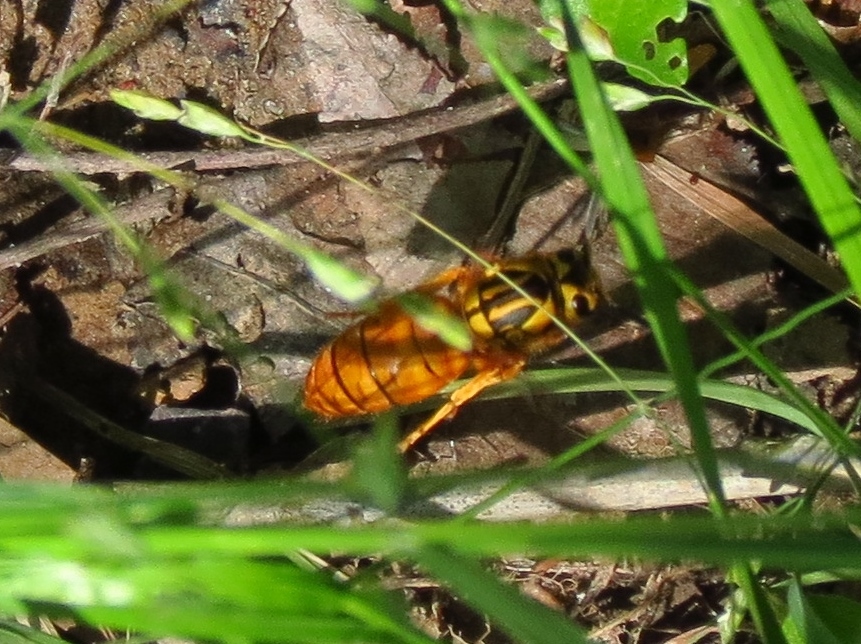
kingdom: Animalia
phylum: Arthropoda
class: Insecta
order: Hymenoptera
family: Vespidae
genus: Vespula
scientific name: Vespula squamosa
